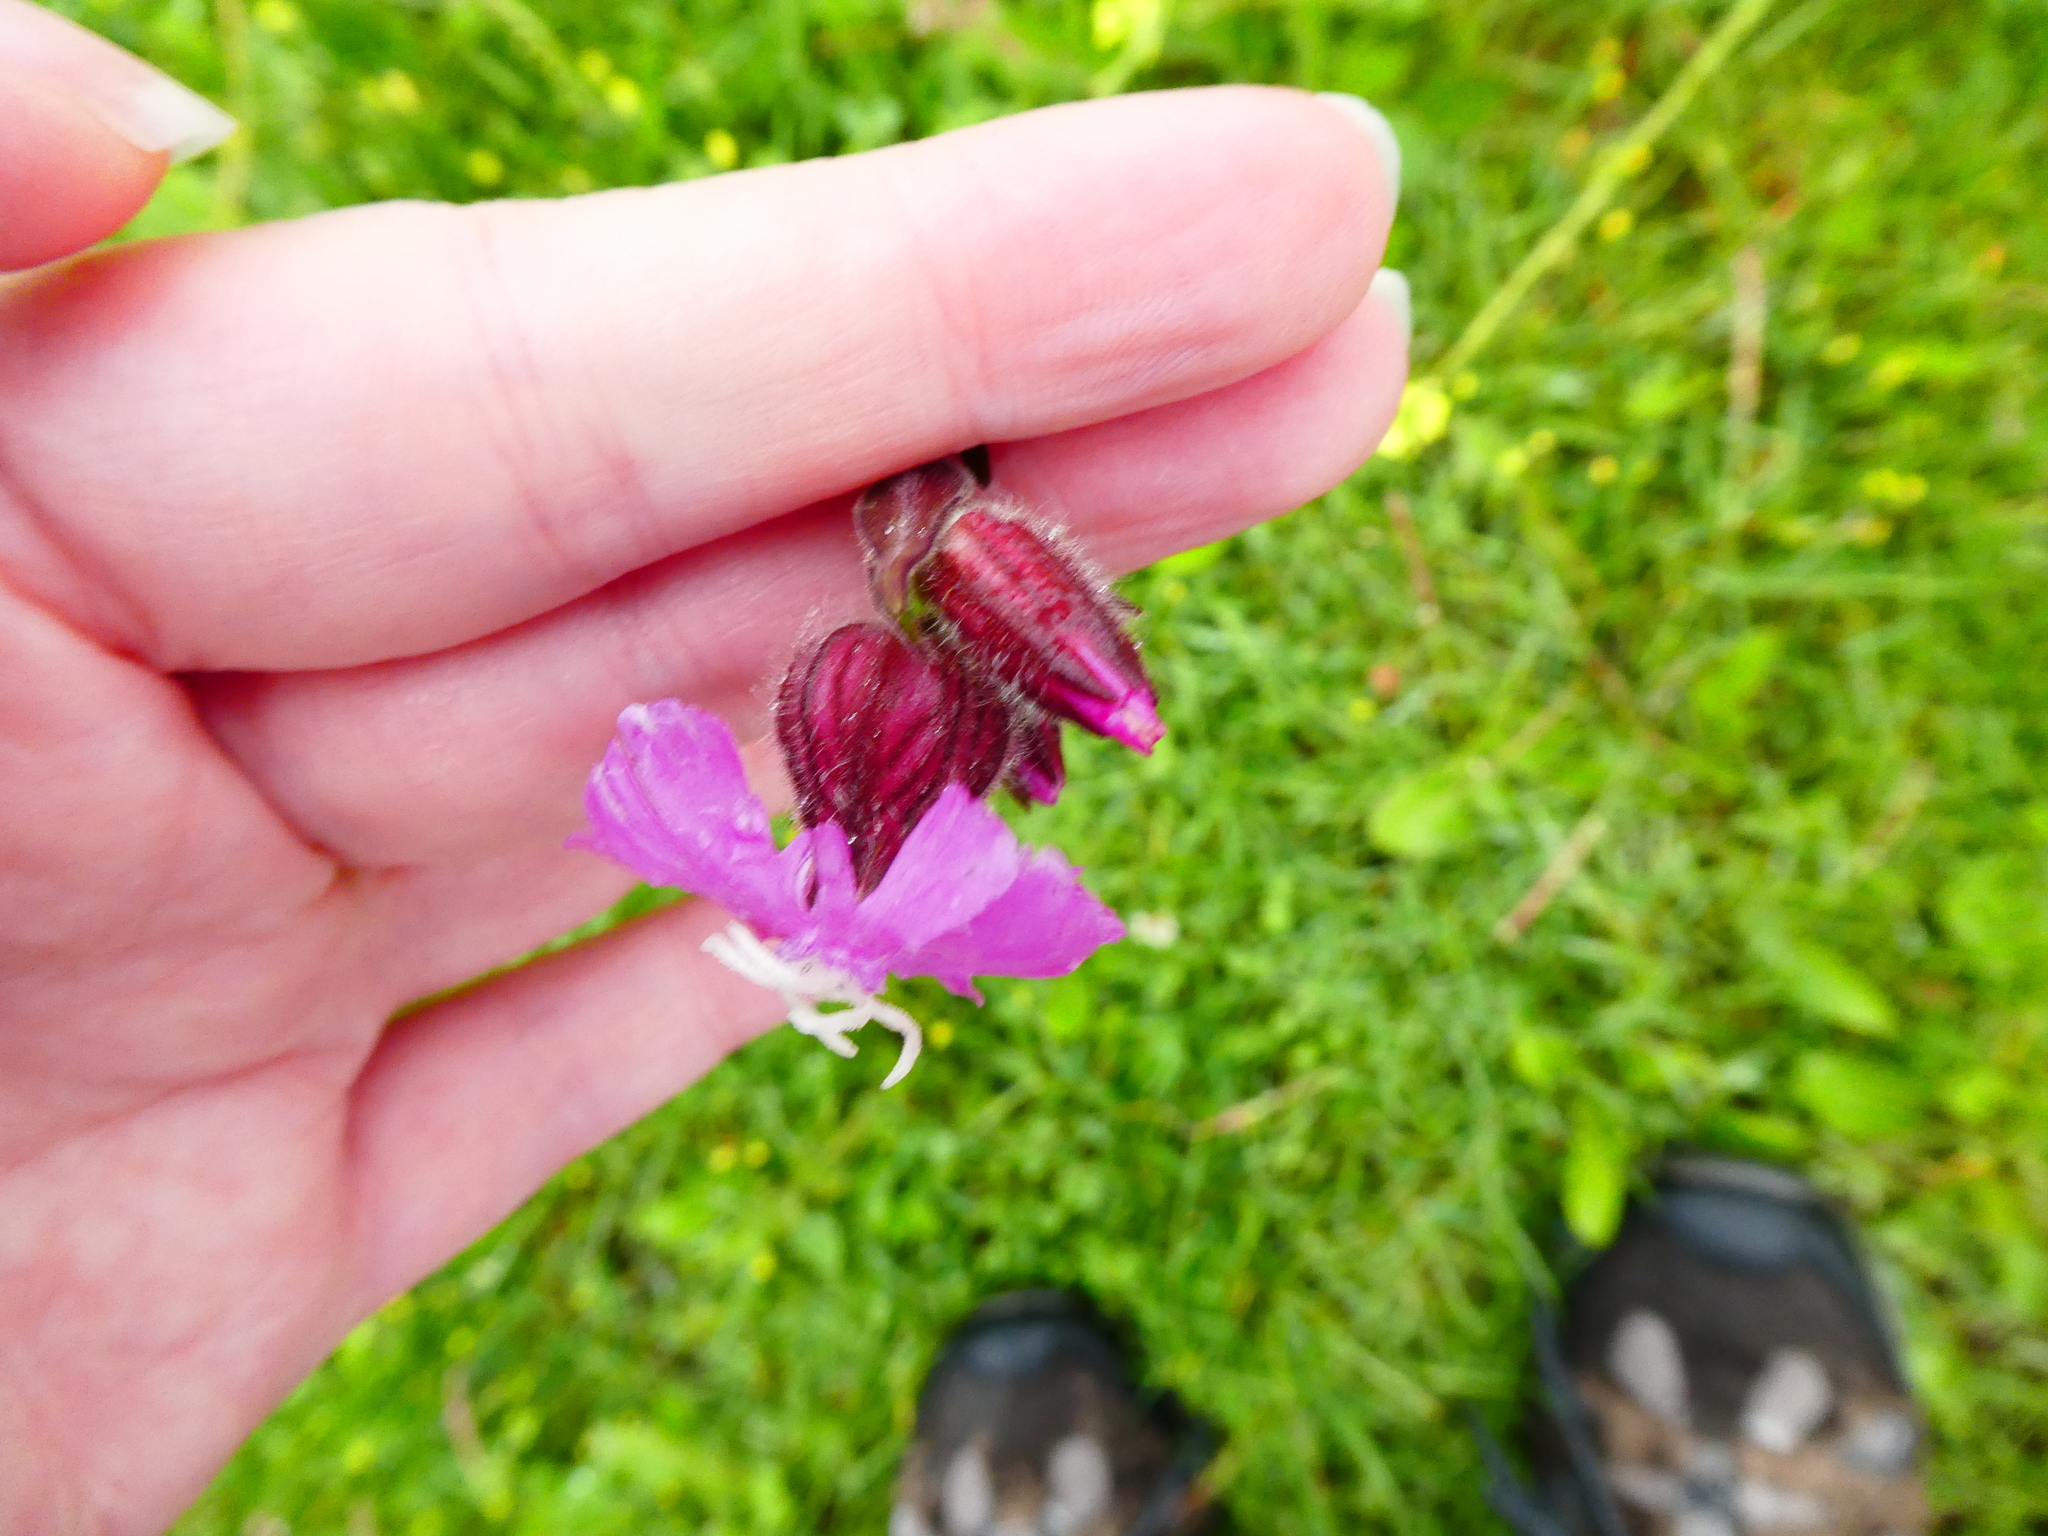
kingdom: Plantae
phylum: Tracheophyta
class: Magnoliopsida
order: Caryophyllales
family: Caryophyllaceae
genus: Silene
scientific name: Silene dioica
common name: Red campion
